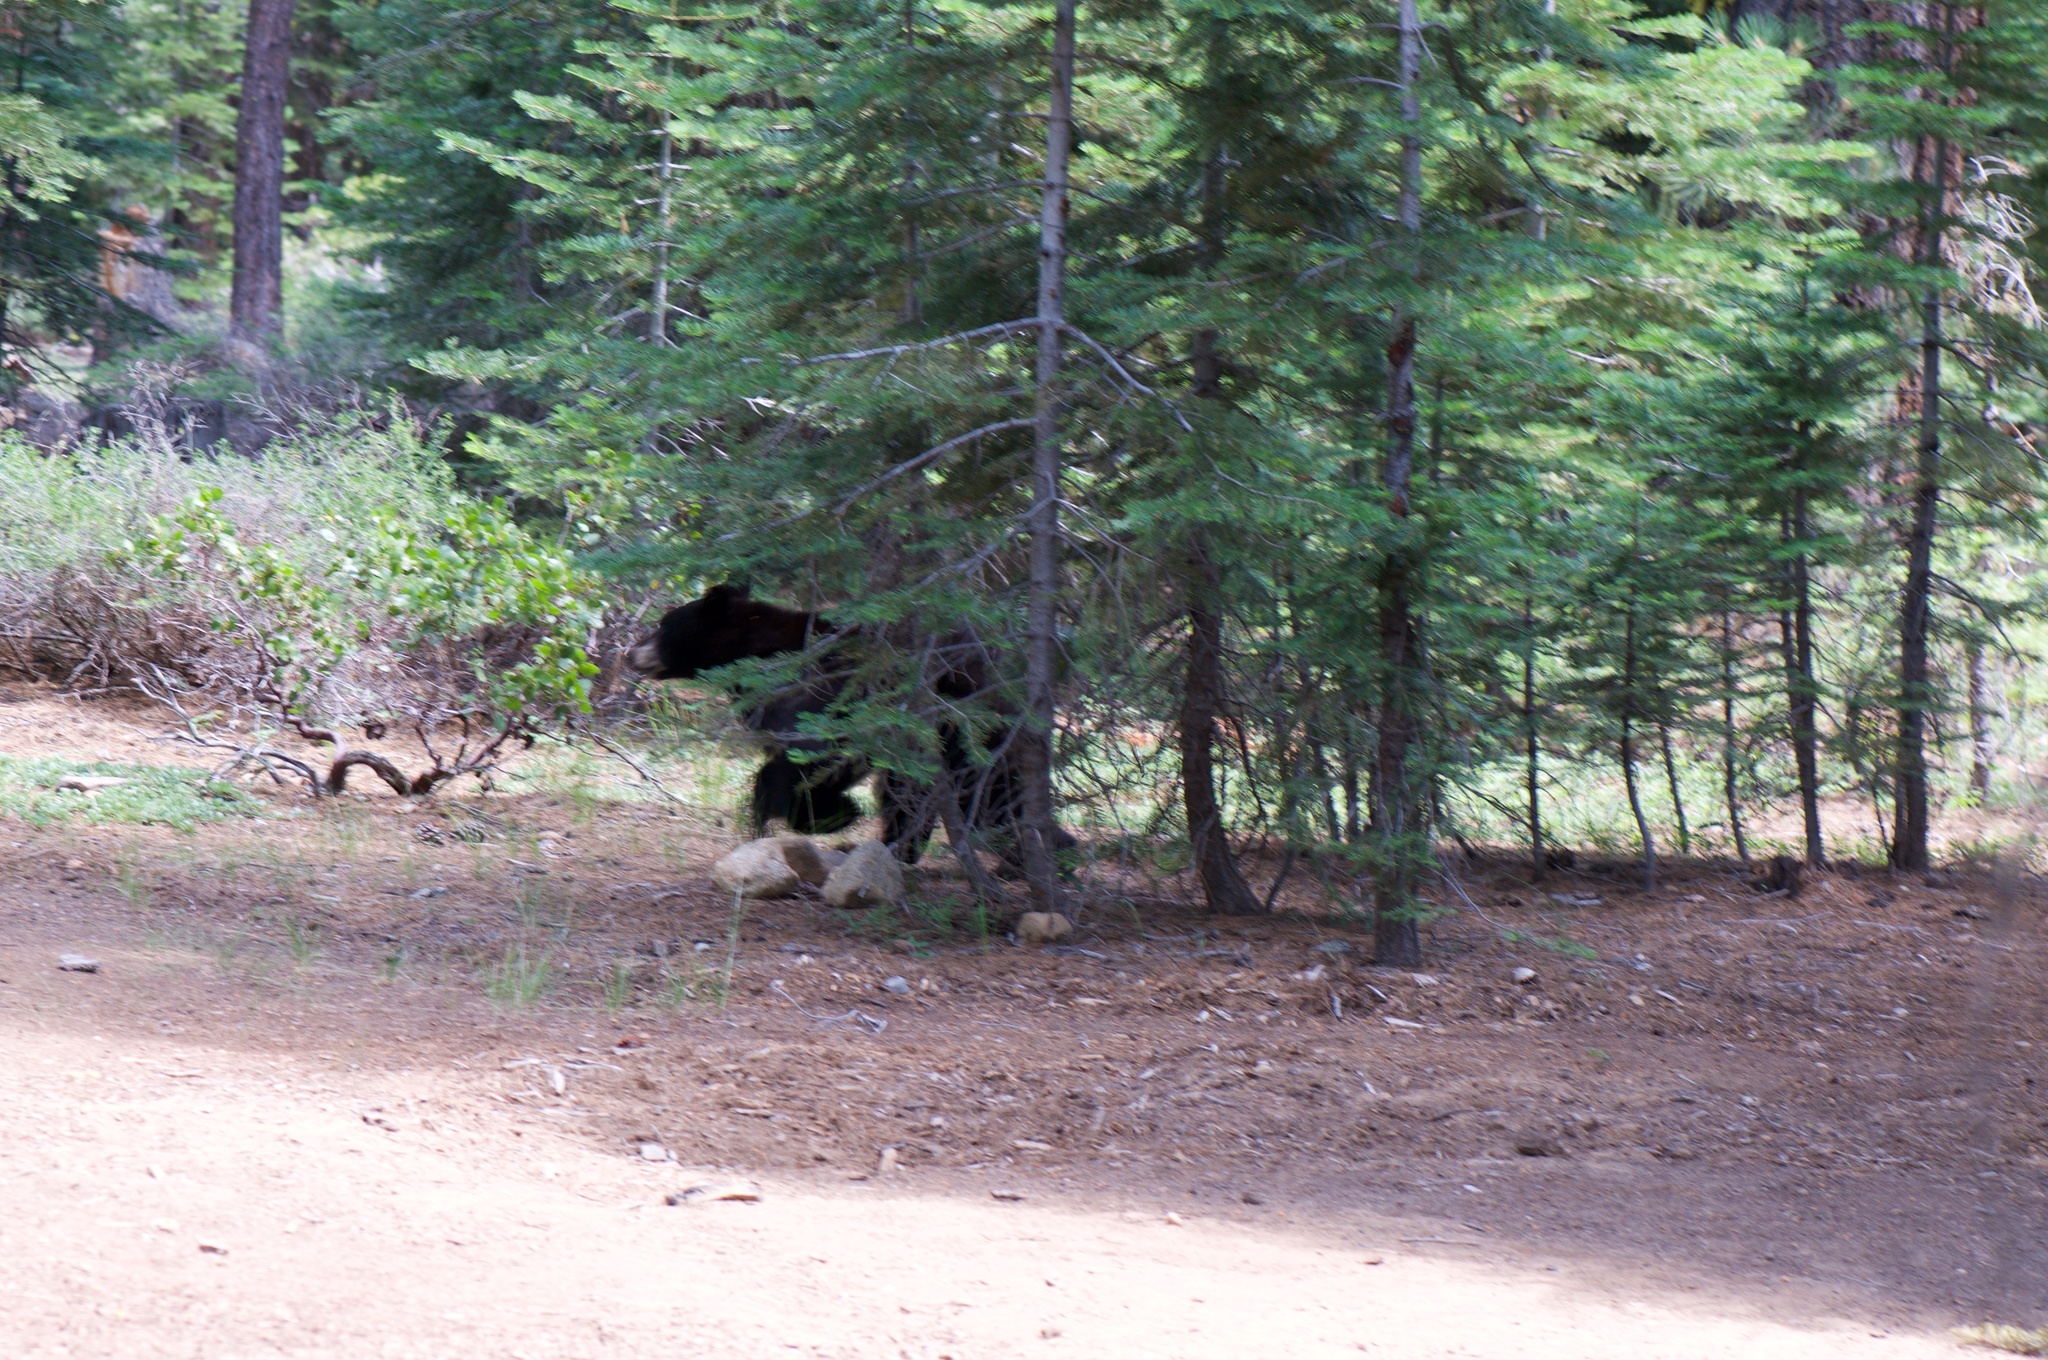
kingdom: Animalia
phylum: Chordata
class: Mammalia
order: Carnivora
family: Ursidae
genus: Ursus
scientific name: Ursus americanus
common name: American black bear
